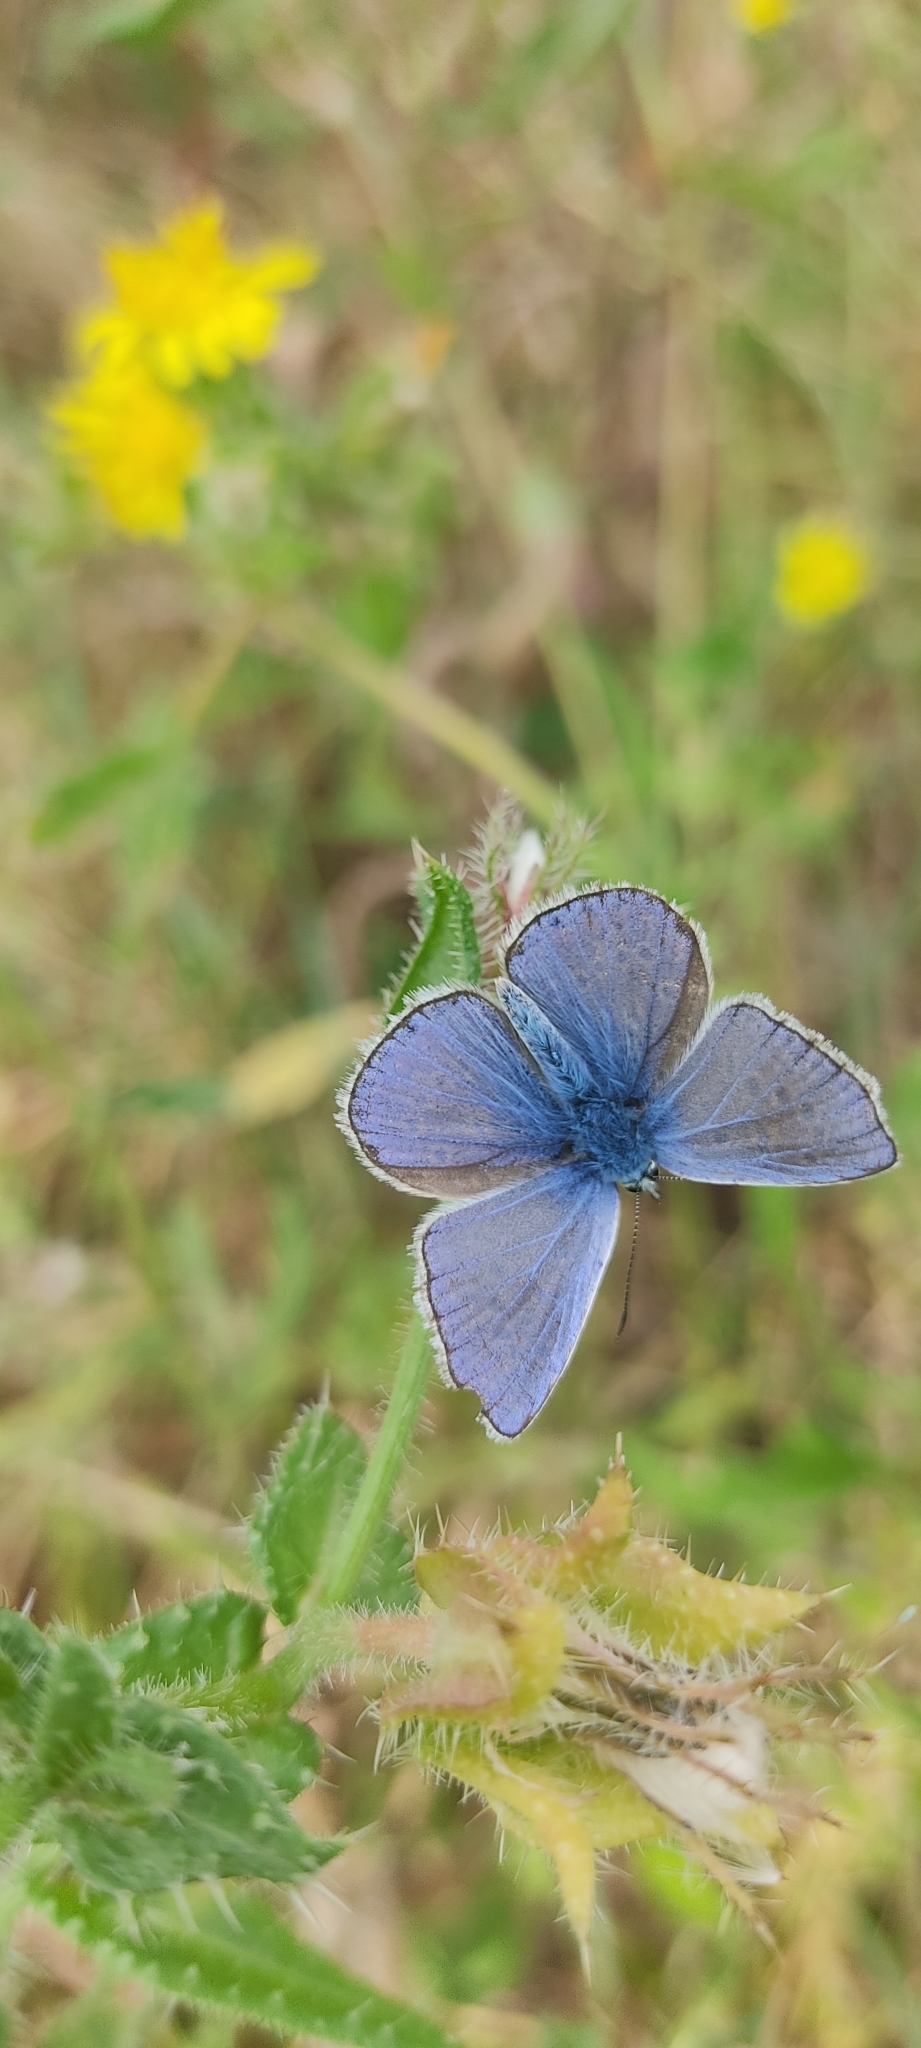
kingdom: Animalia
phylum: Arthropoda
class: Insecta
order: Lepidoptera
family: Lycaenidae
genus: Polyommatus
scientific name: Polyommatus icarus
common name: Common blue
